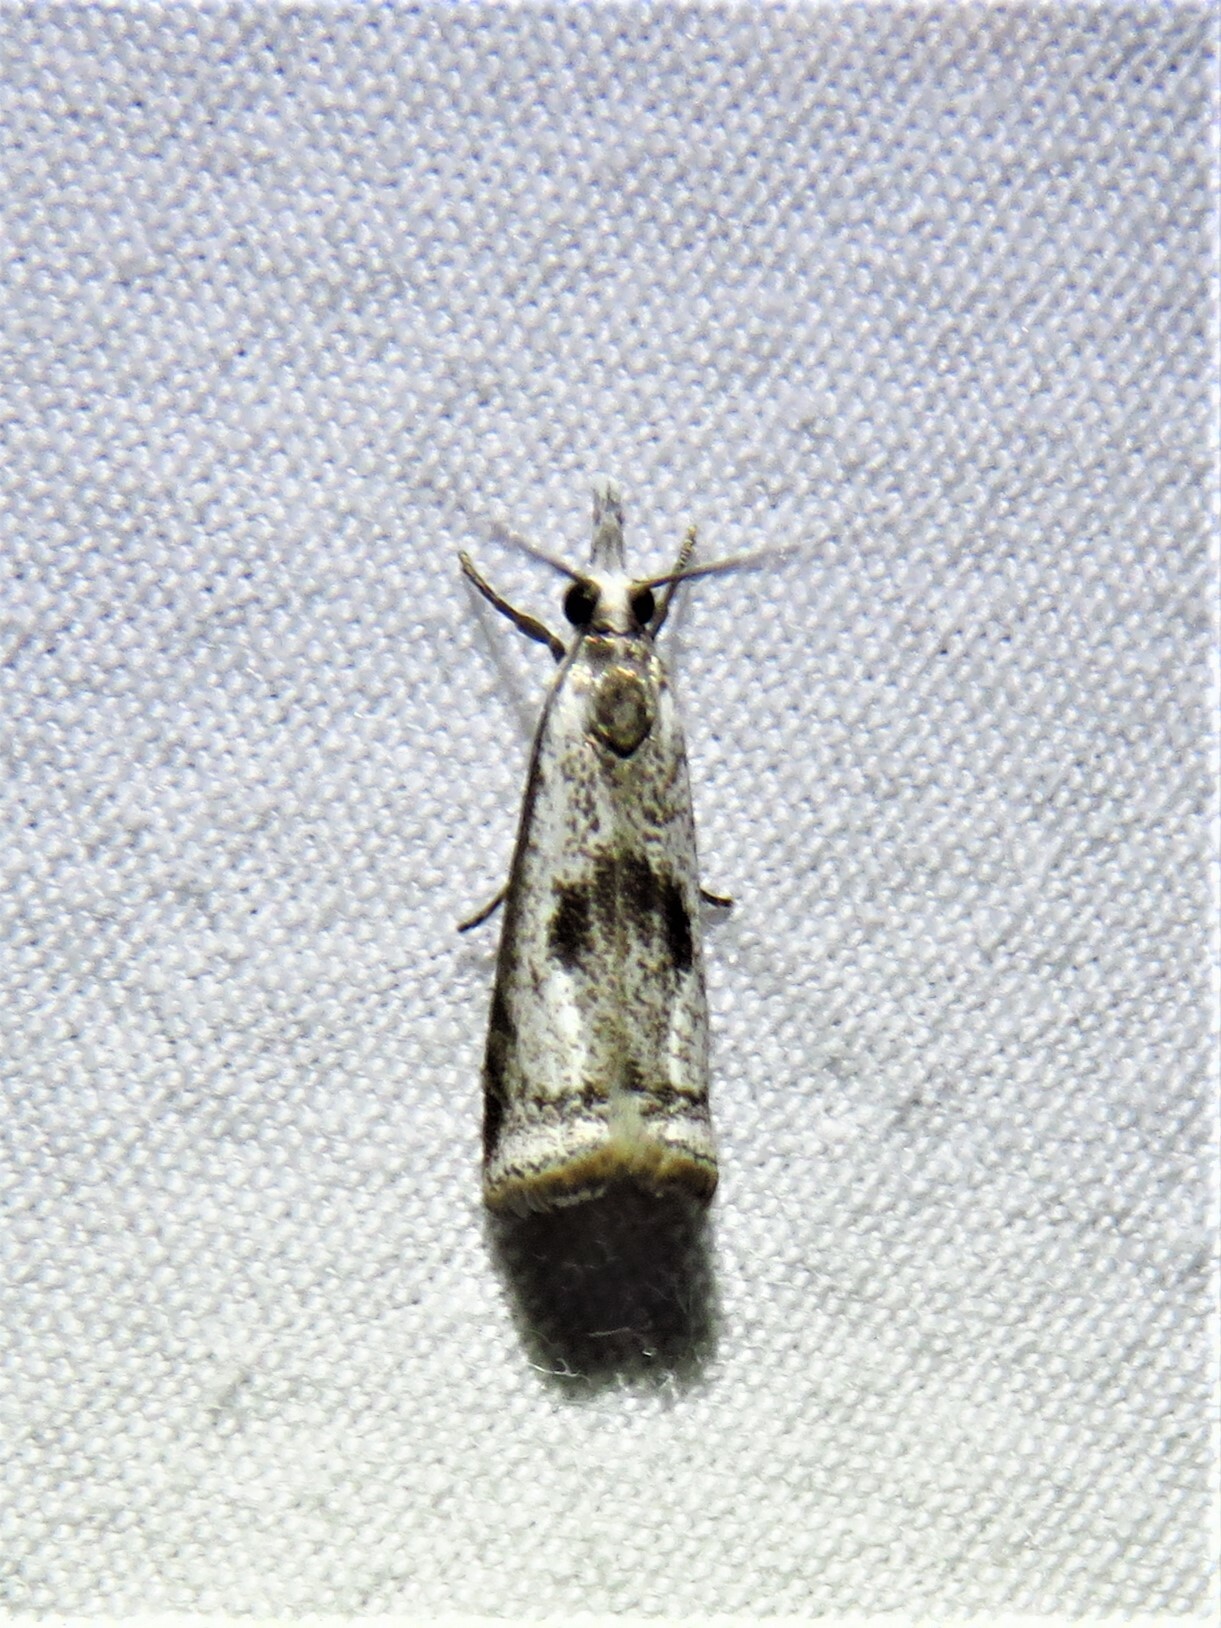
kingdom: Animalia
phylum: Arthropoda
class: Insecta
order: Lepidoptera
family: Crambidae
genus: Microcrambus
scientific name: Microcrambus croesus
